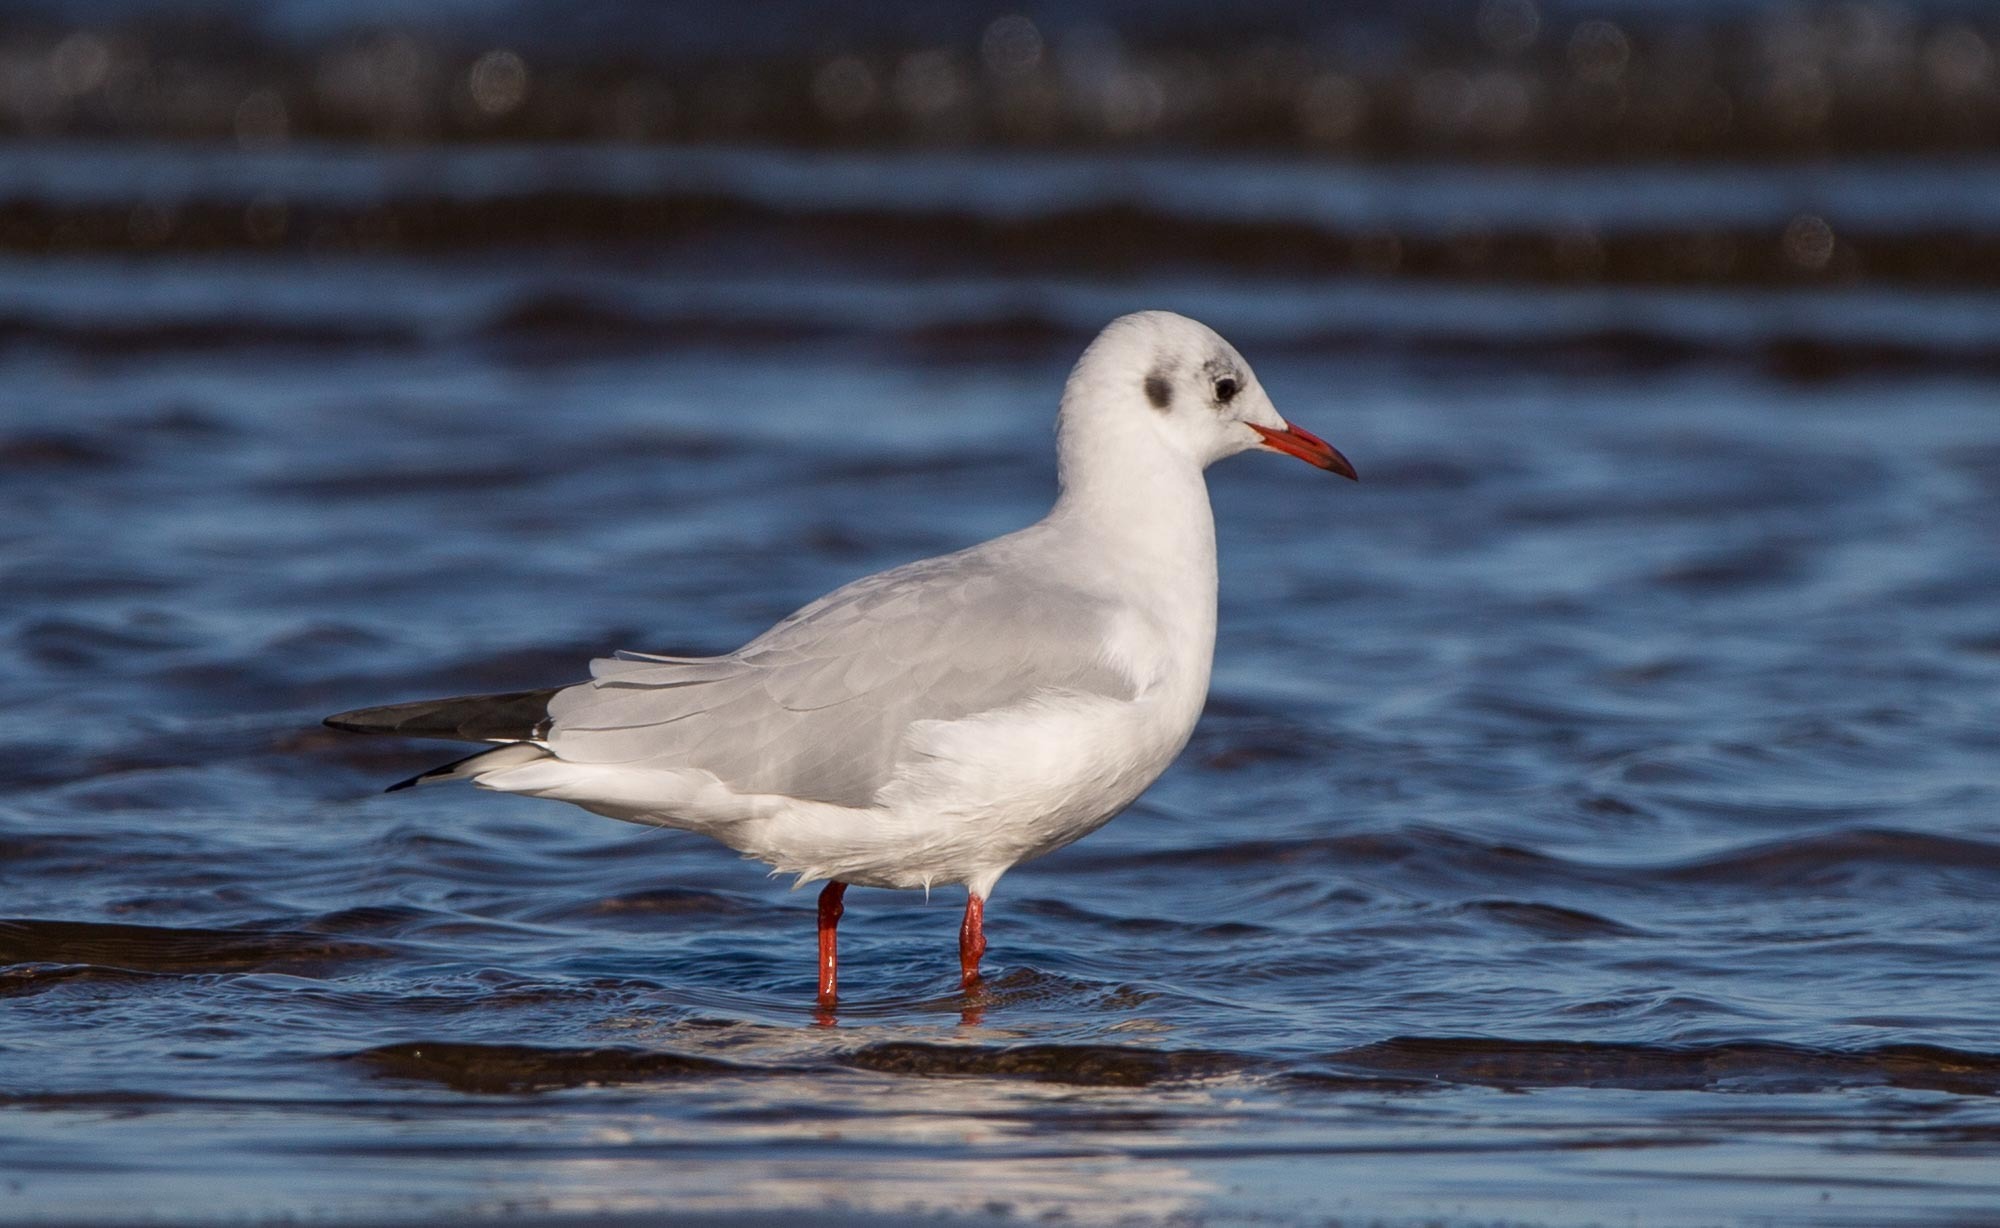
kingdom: Animalia
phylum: Chordata
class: Aves
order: Charadriiformes
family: Laridae
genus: Chroicocephalus
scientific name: Chroicocephalus ridibundus
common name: Black-headed gull
